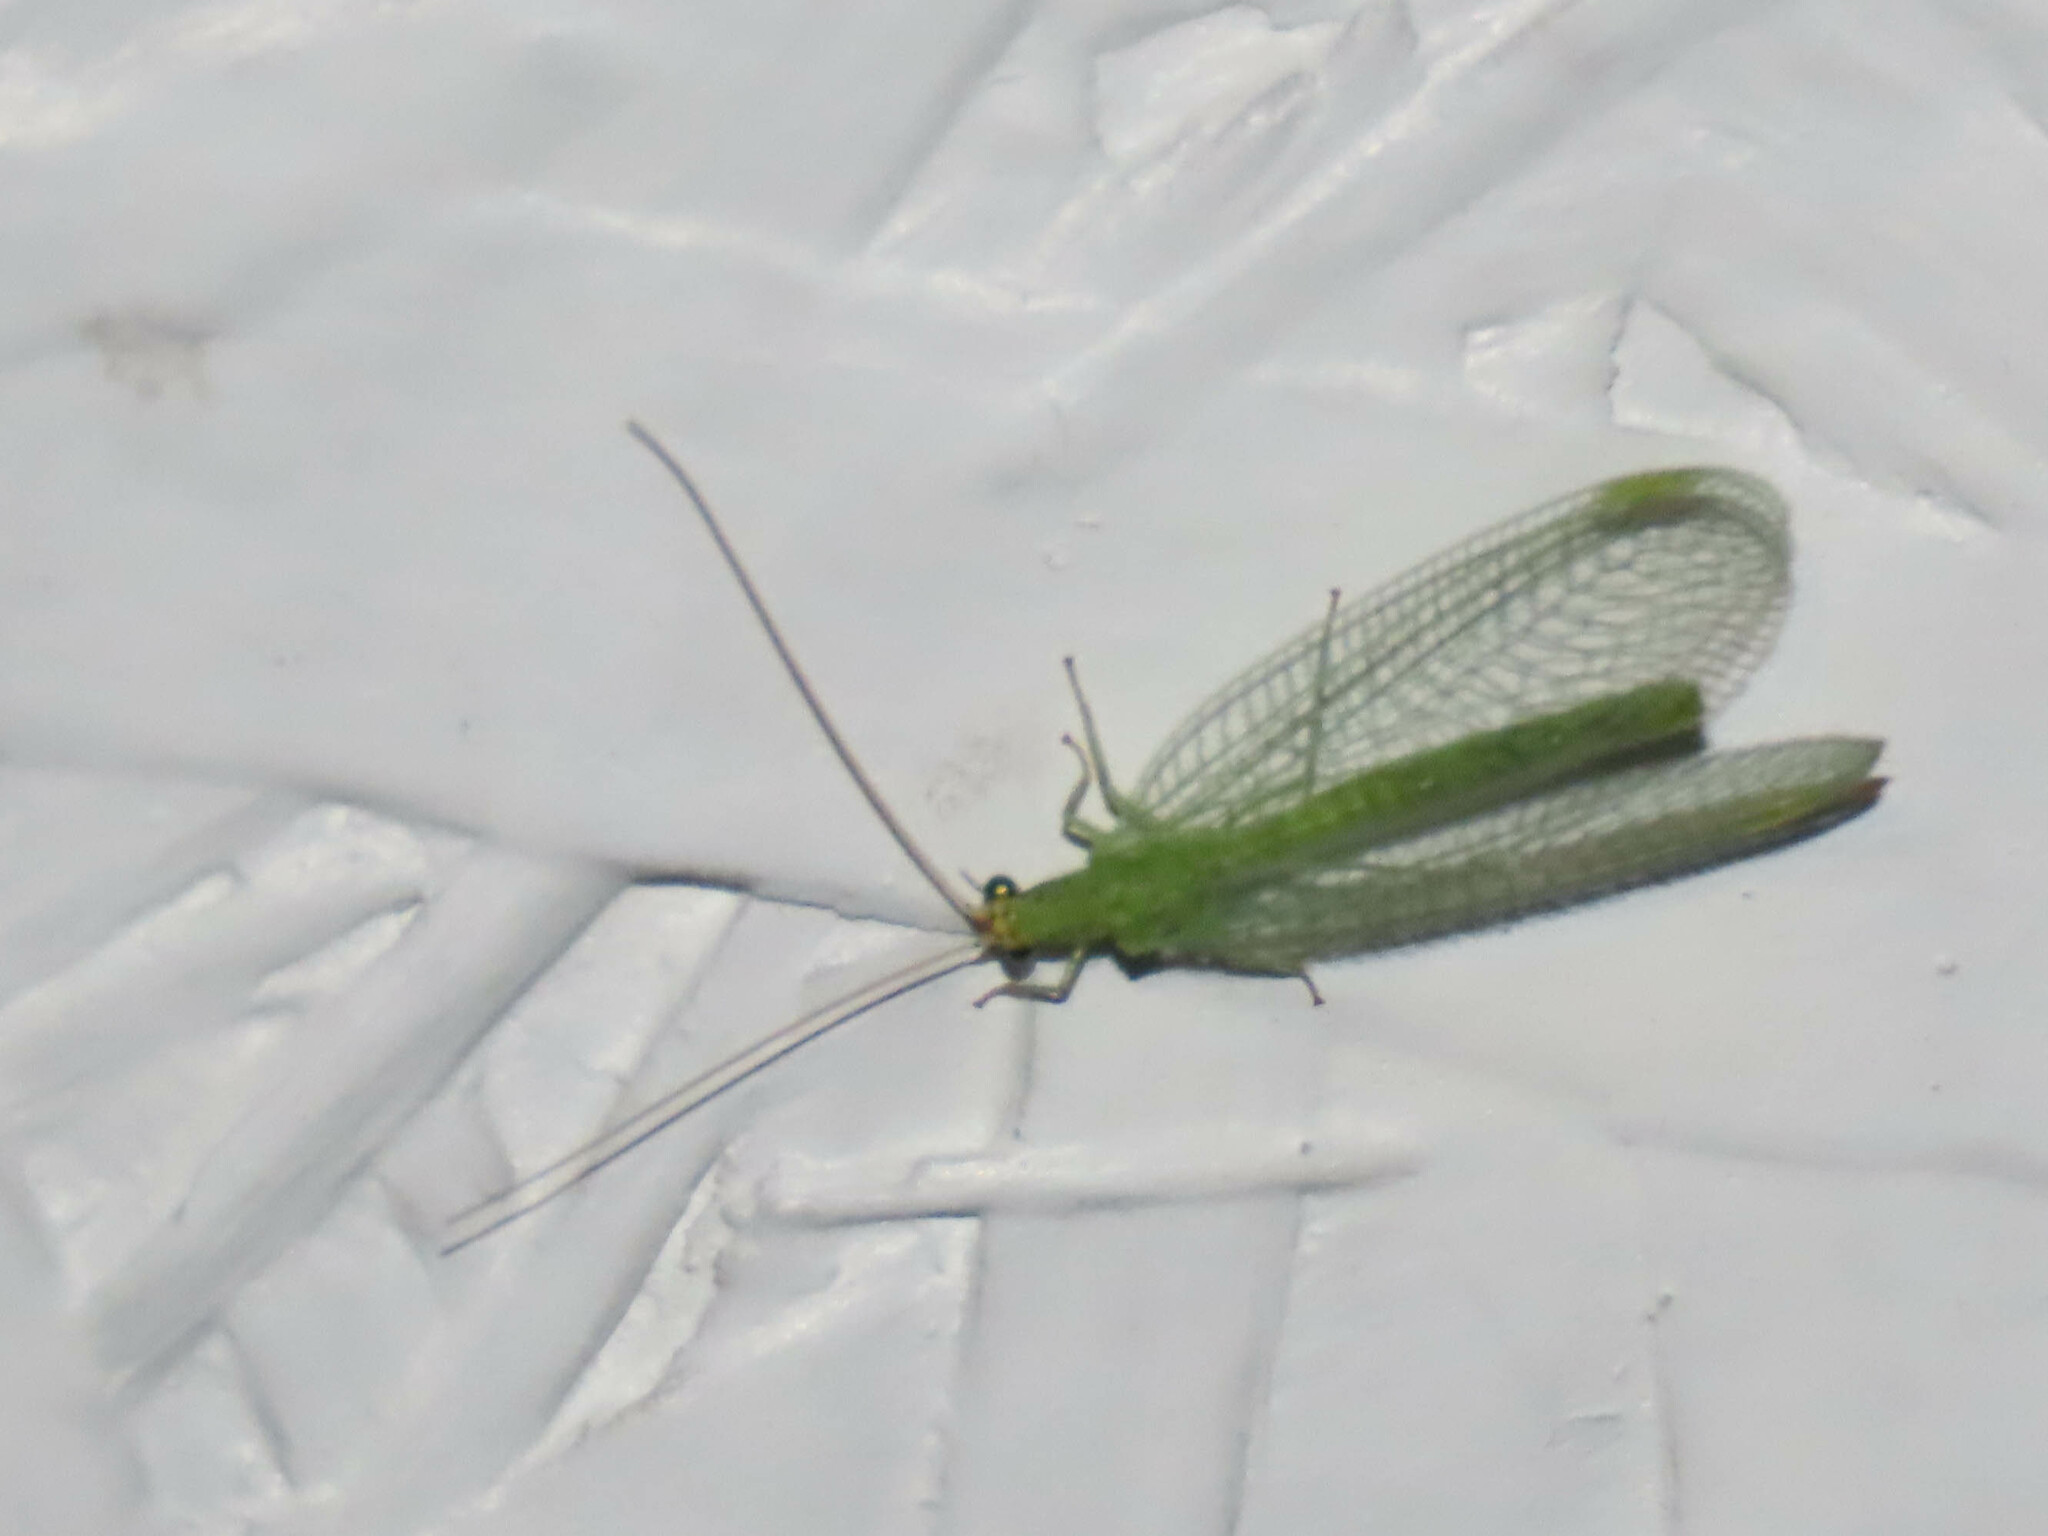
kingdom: Animalia
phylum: Arthropoda
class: Insecta
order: Neuroptera
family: Chrysopidae
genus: Chrysopa
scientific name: Chrysopa oculata
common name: Golden-eyed lacewing
